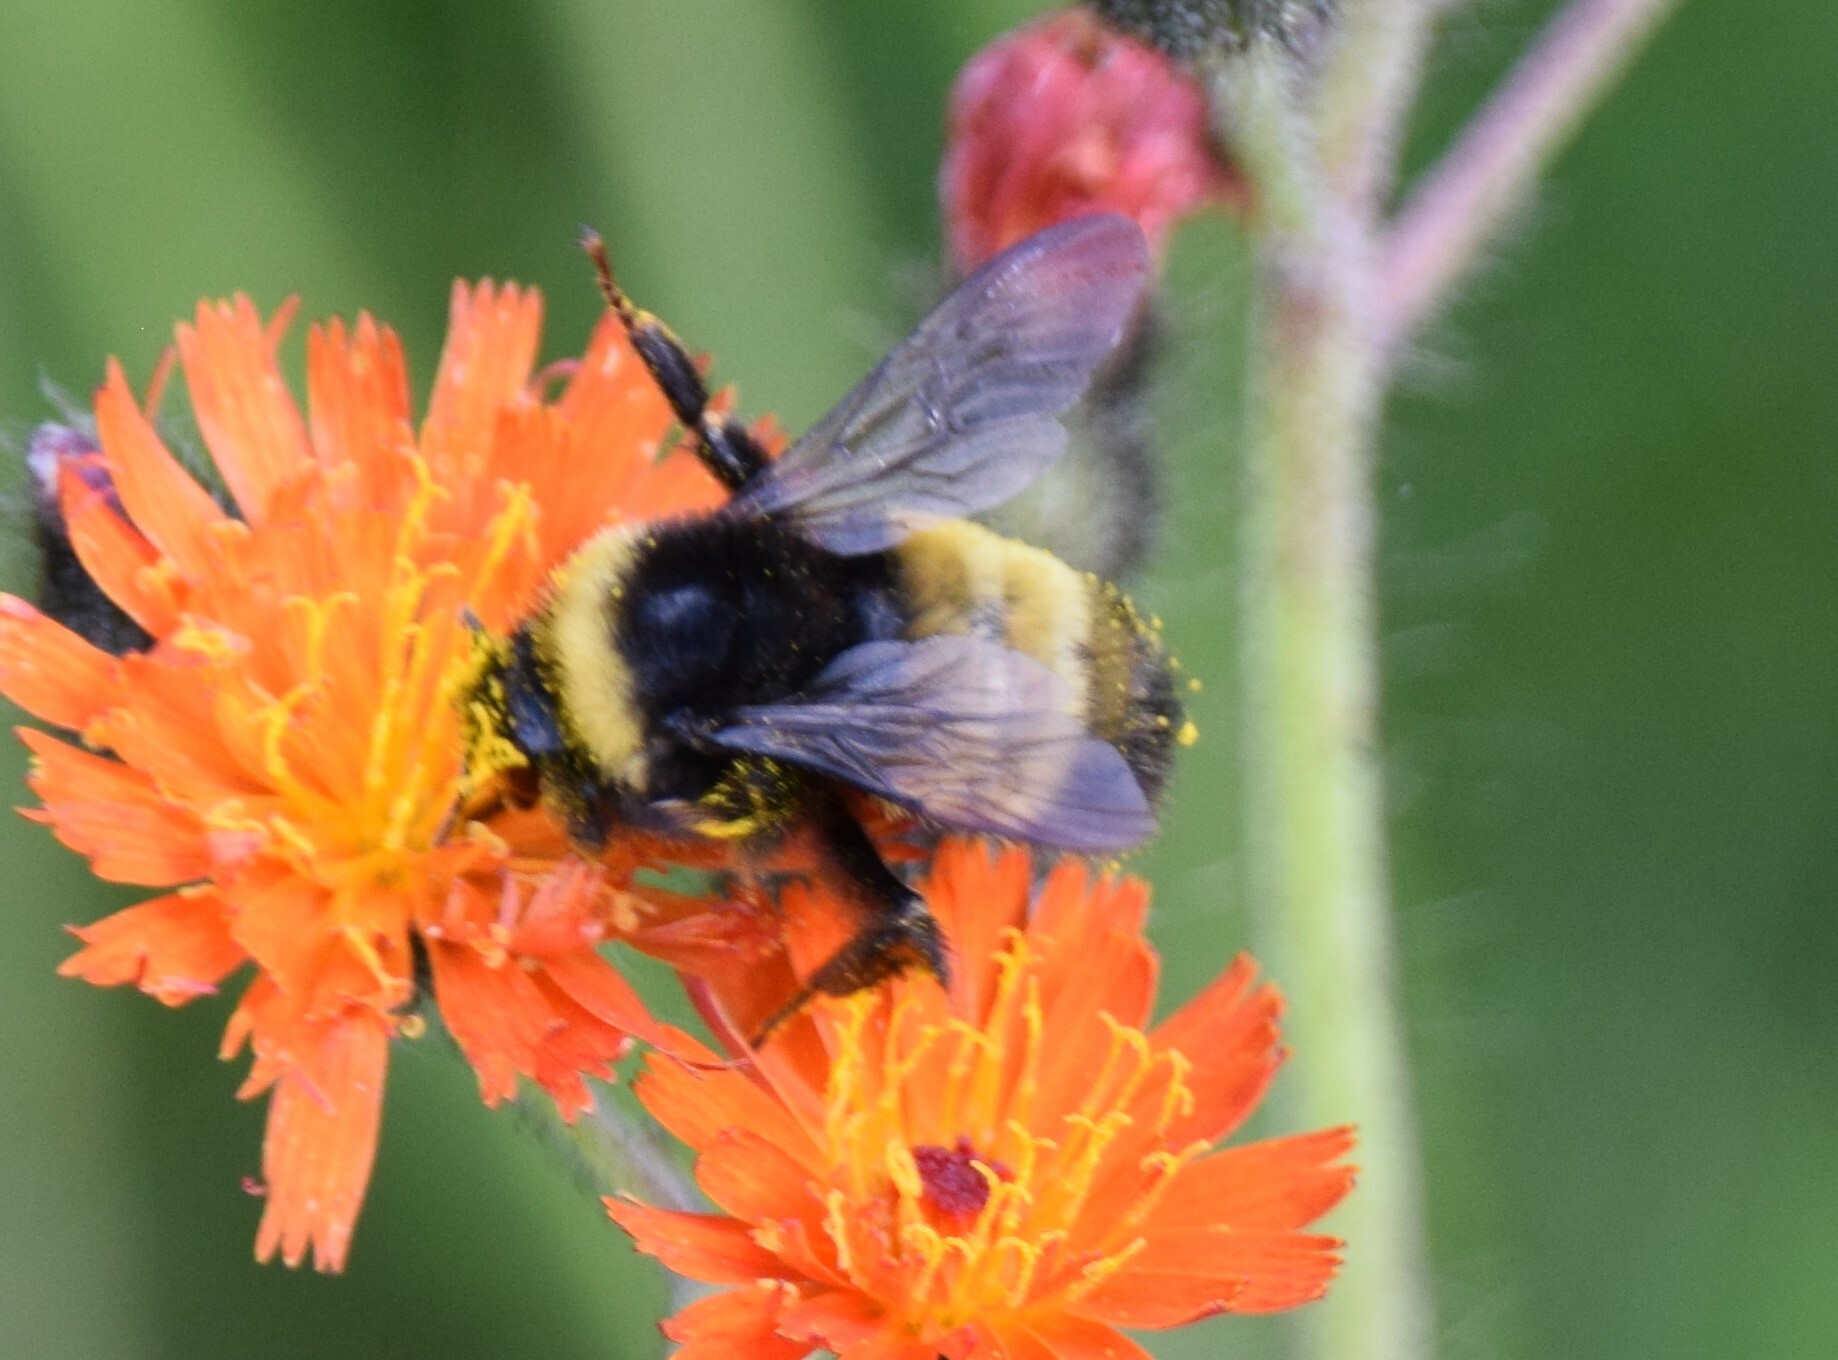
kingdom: Animalia
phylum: Arthropoda
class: Insecta
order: Hymenoptera
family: Apidae
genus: Bombus
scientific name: Bombus terricola
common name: Yellow-banded bumble bee
